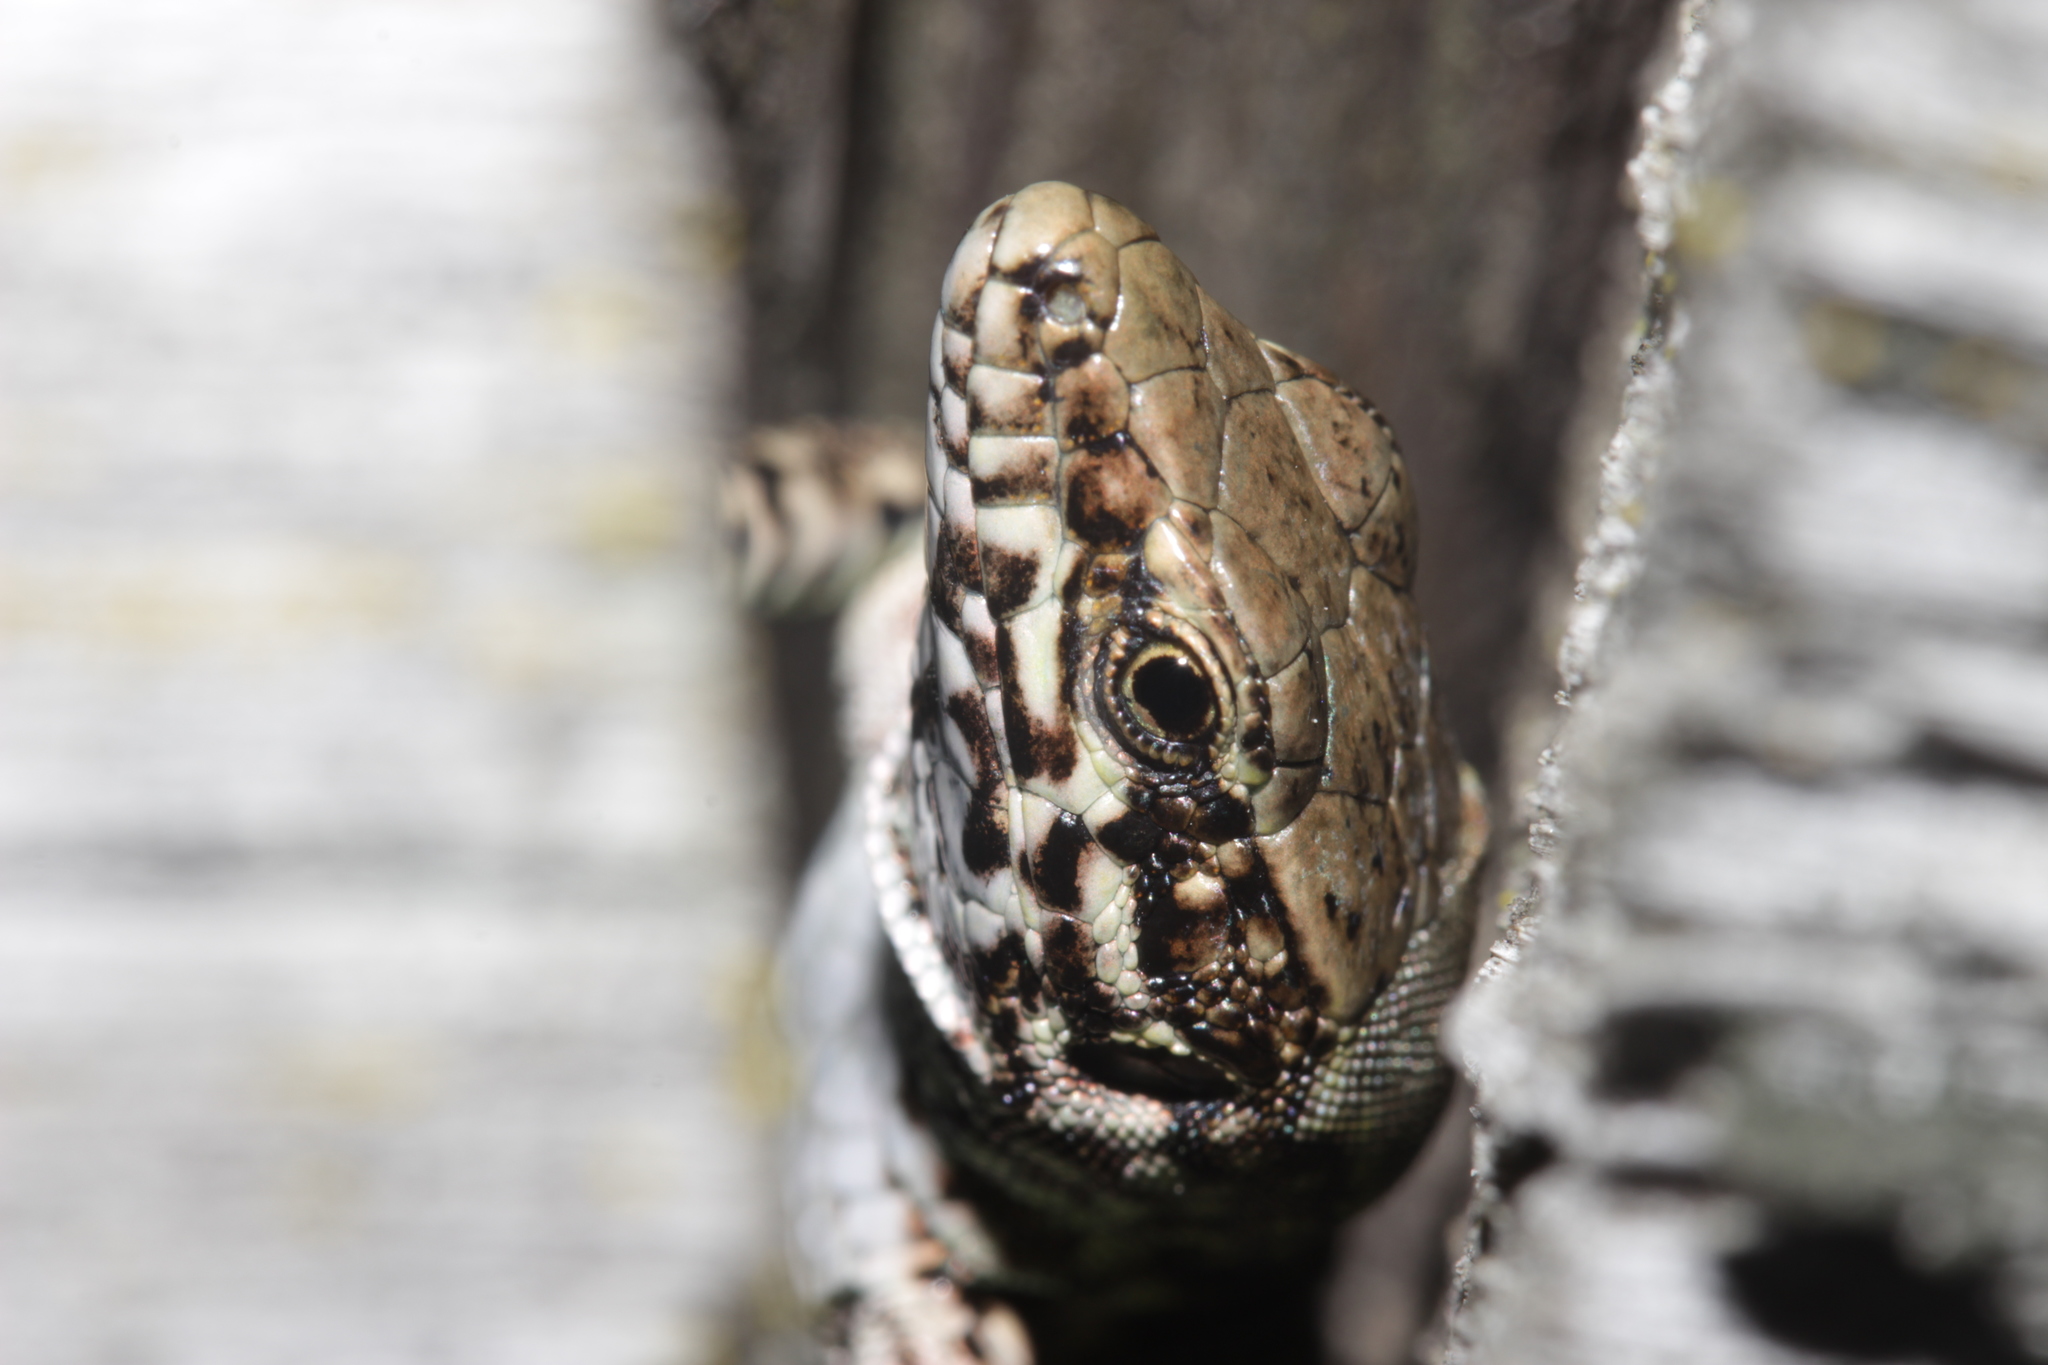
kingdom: Animalia
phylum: Chordata
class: Squamata
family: Lacertidae
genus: Podarcis
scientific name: Podarcis muralis
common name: Common wall lizard
